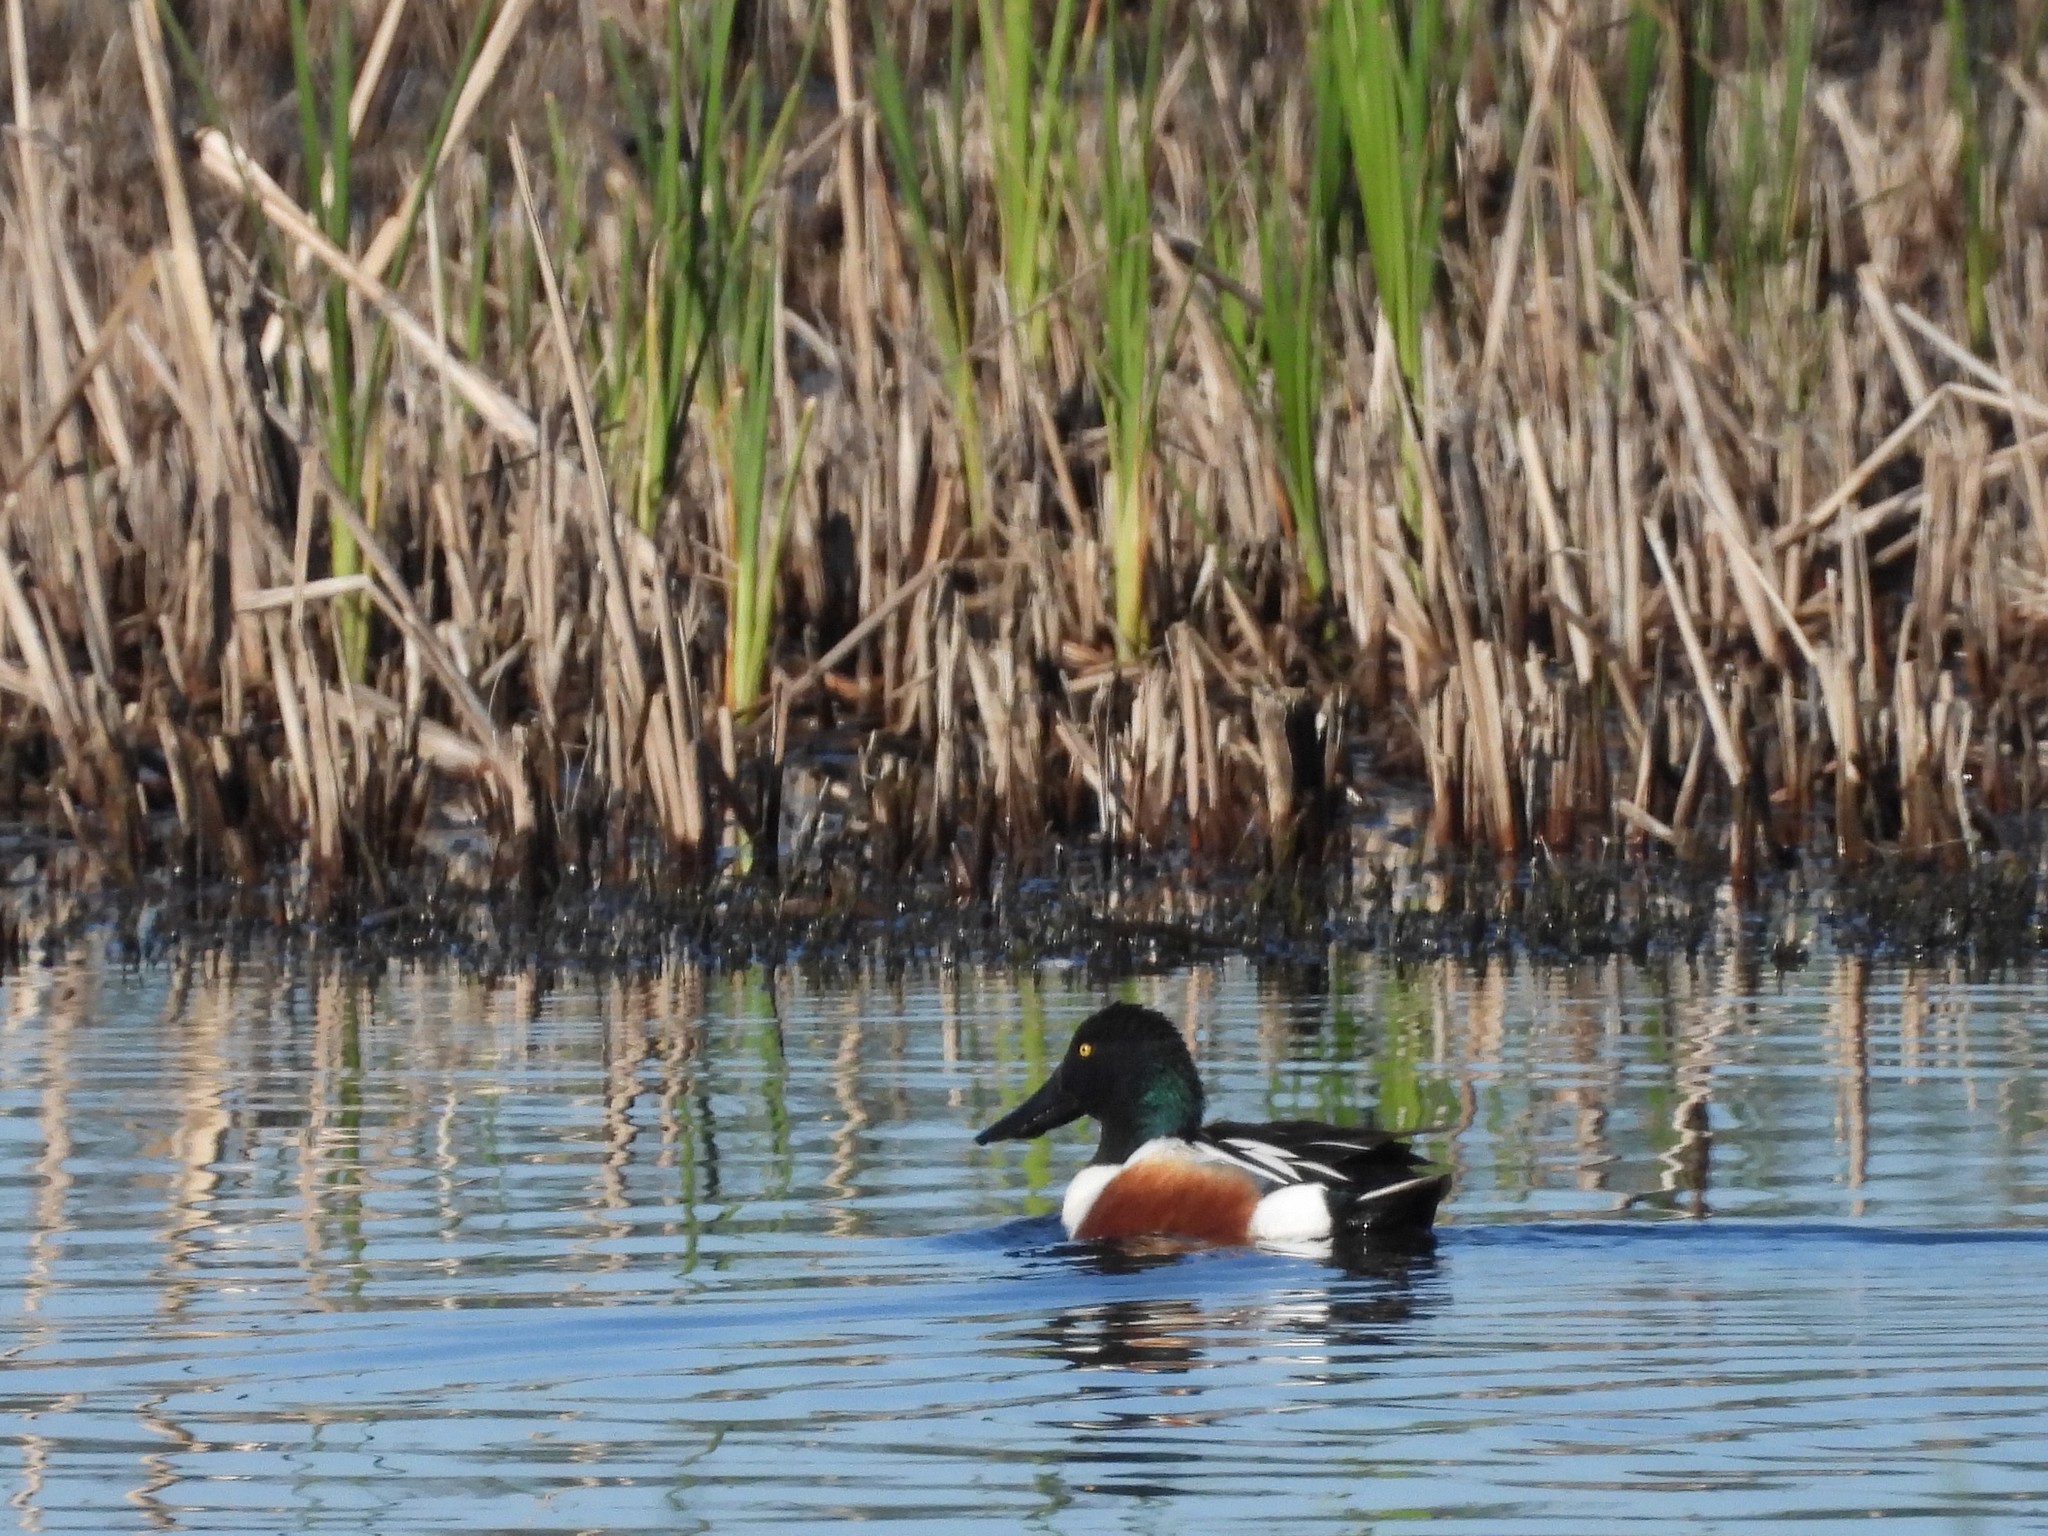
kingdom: Animalia
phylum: Chordata
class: Aves
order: Anseriformes
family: Anatidae
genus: Spatula
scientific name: Spatula clypeata
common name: Northern shoveler
